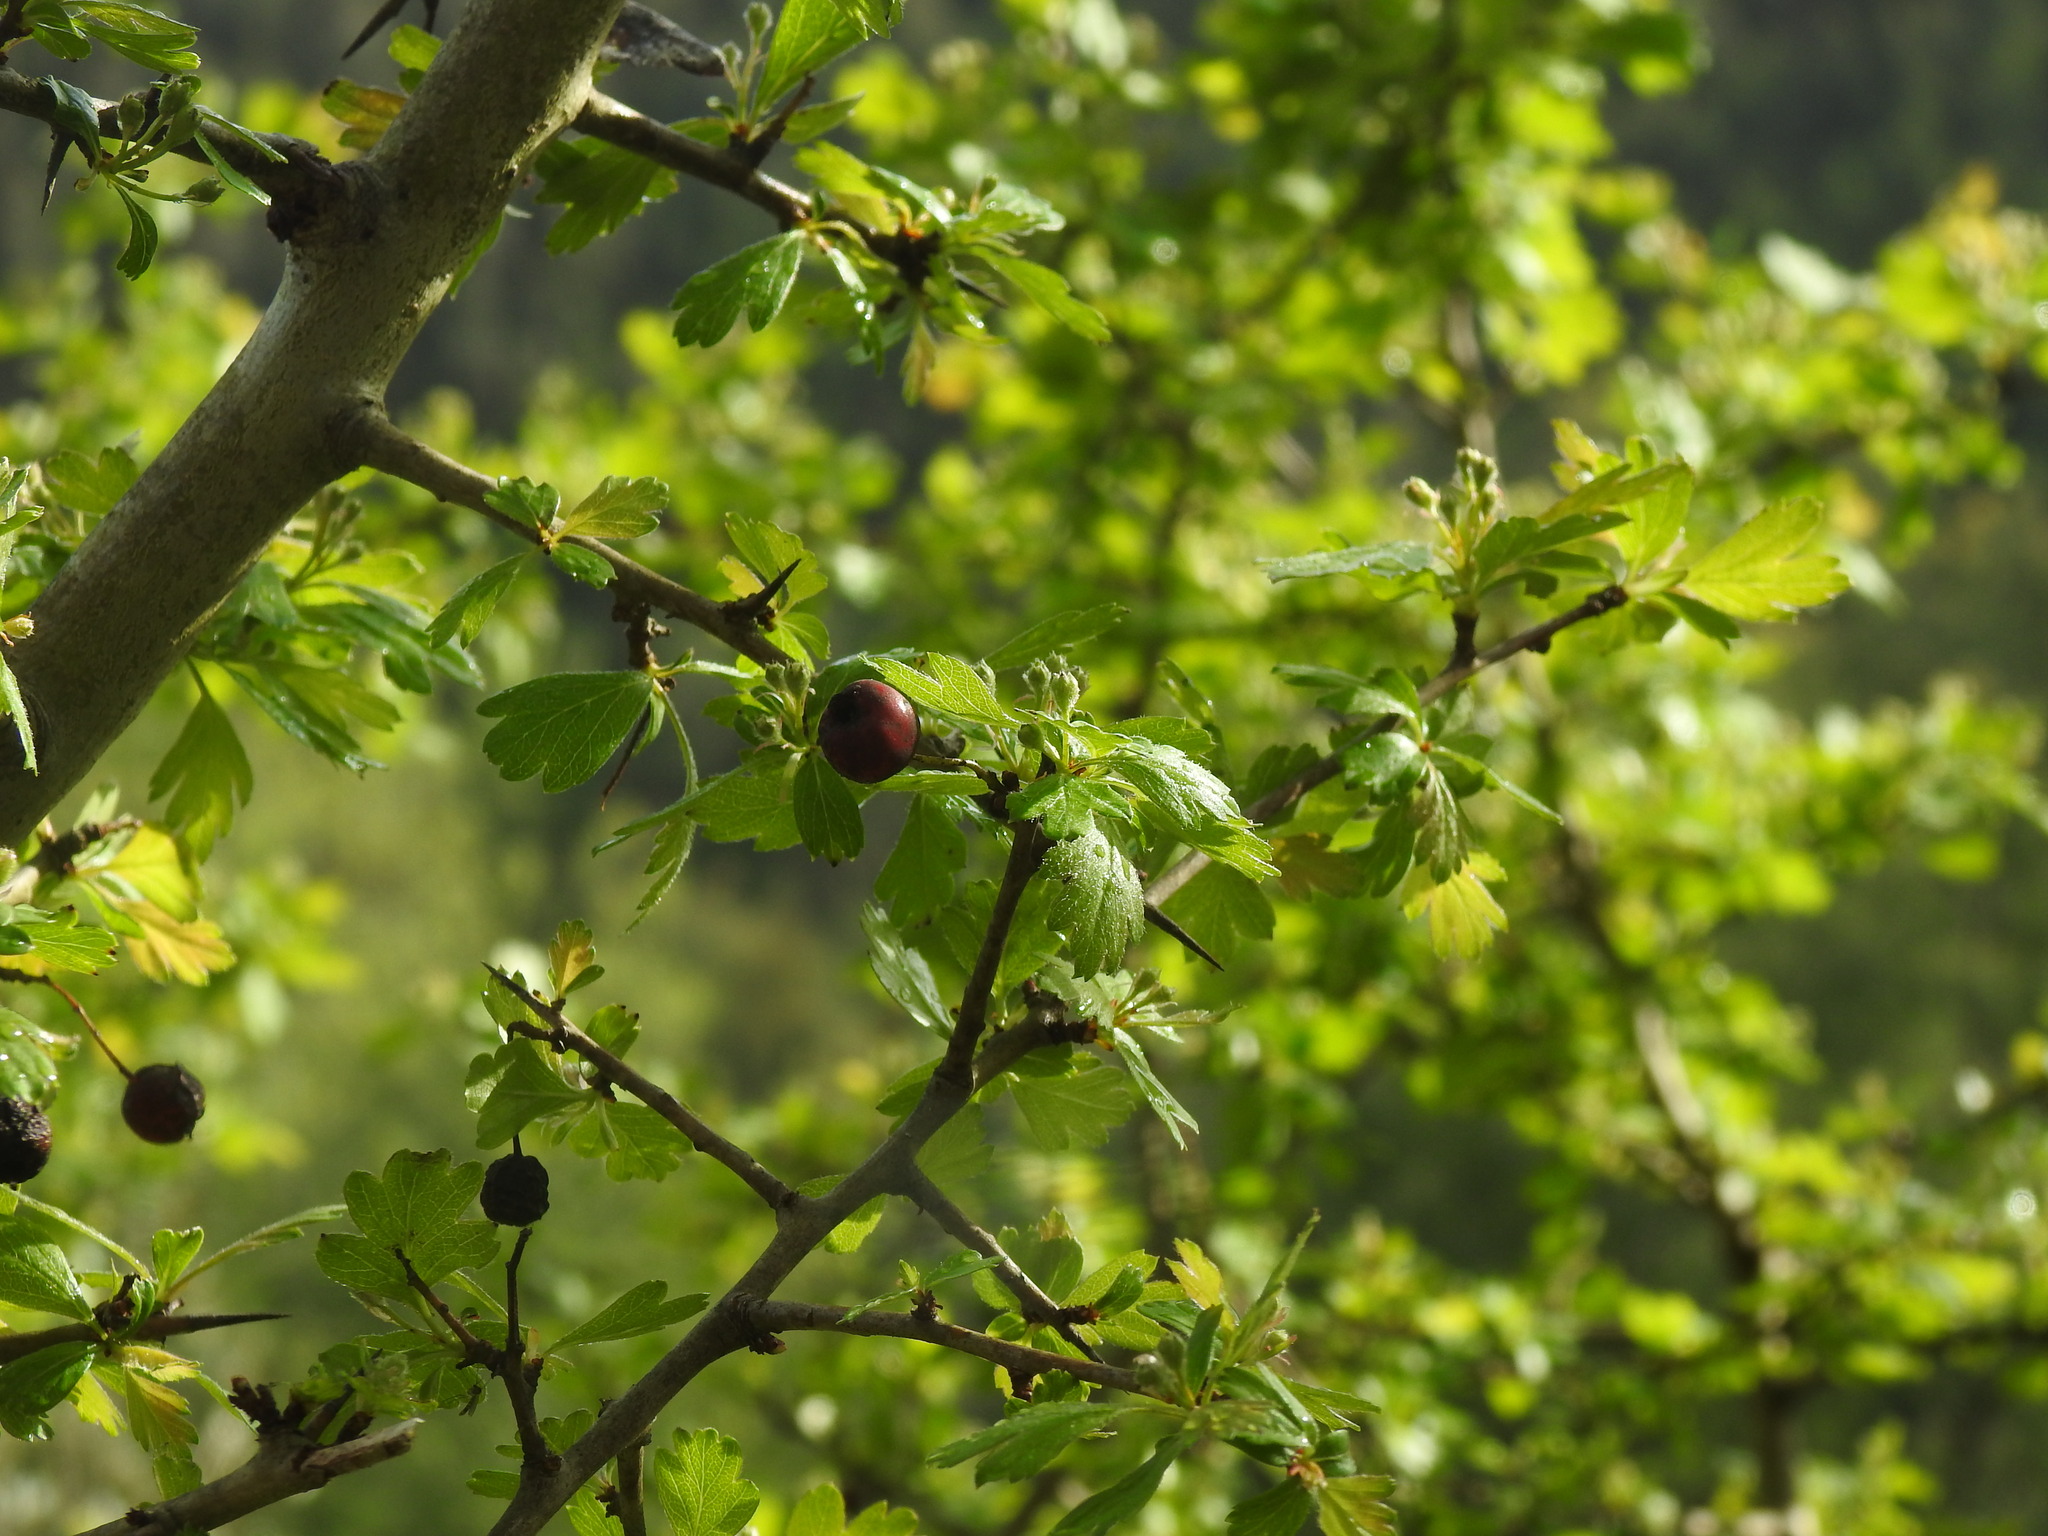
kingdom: Plantae
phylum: Tracheophyta
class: Magnoliopsida
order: Rosales
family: Rosaceae
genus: Crataegus
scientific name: Crataegus monogyna
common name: Hawthorn
